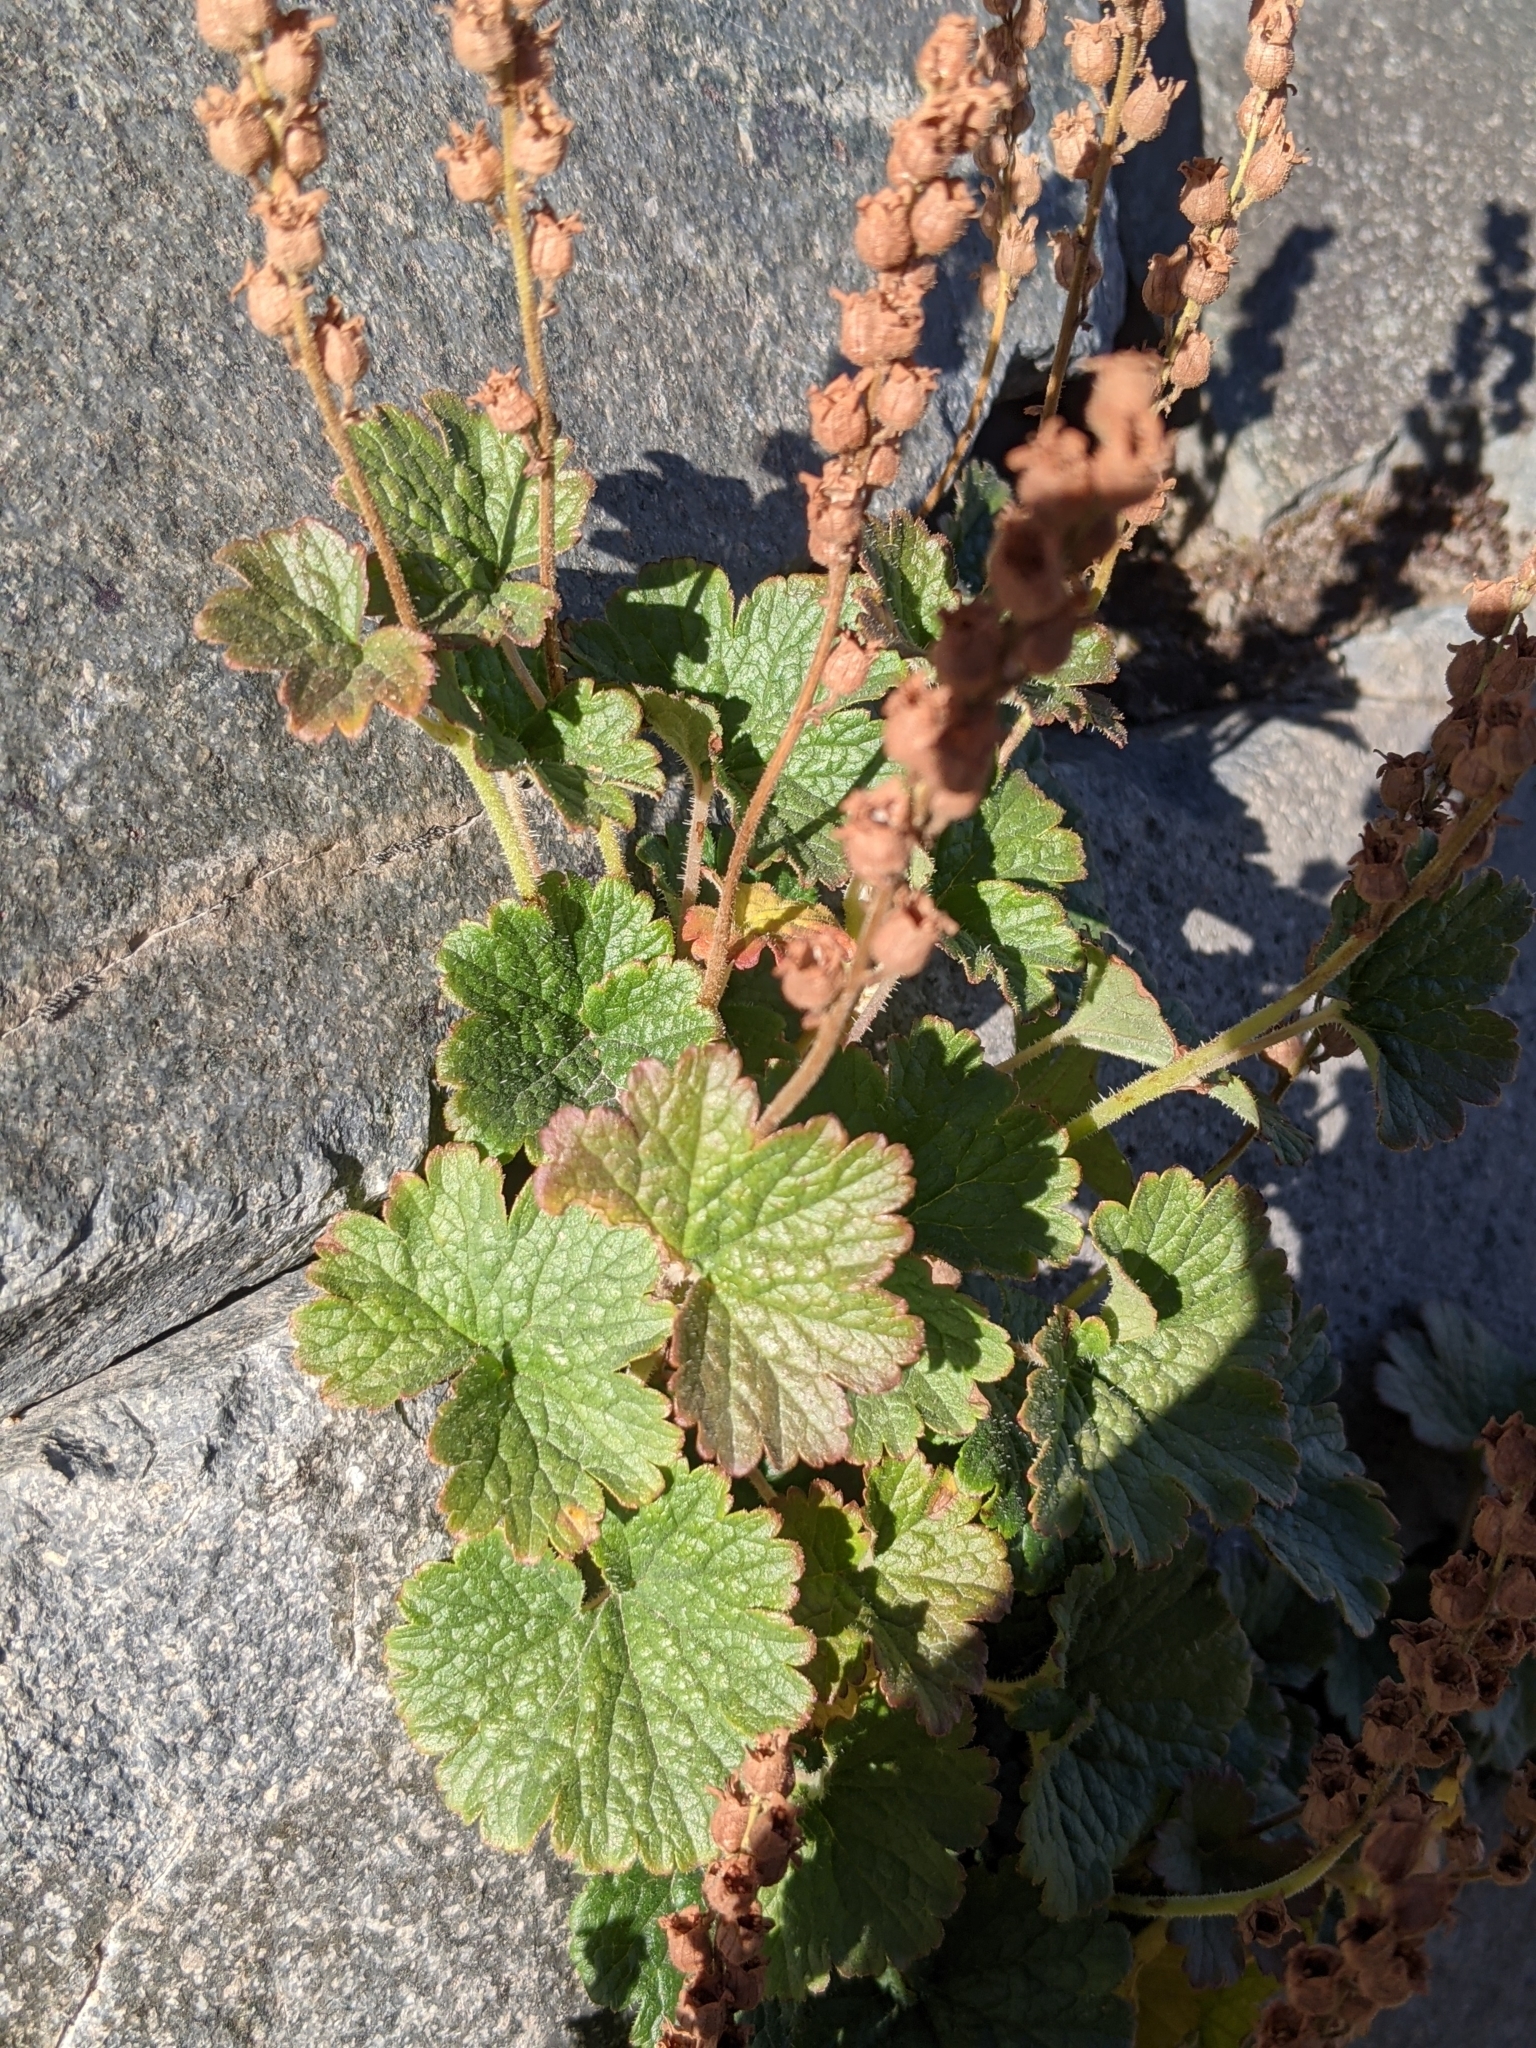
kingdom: Plantae
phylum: Tracheophyta
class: Magnoliopsida
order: Saxifragales
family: Saxifragaceae
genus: Elmera
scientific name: Elmera racemosa
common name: Elmera
